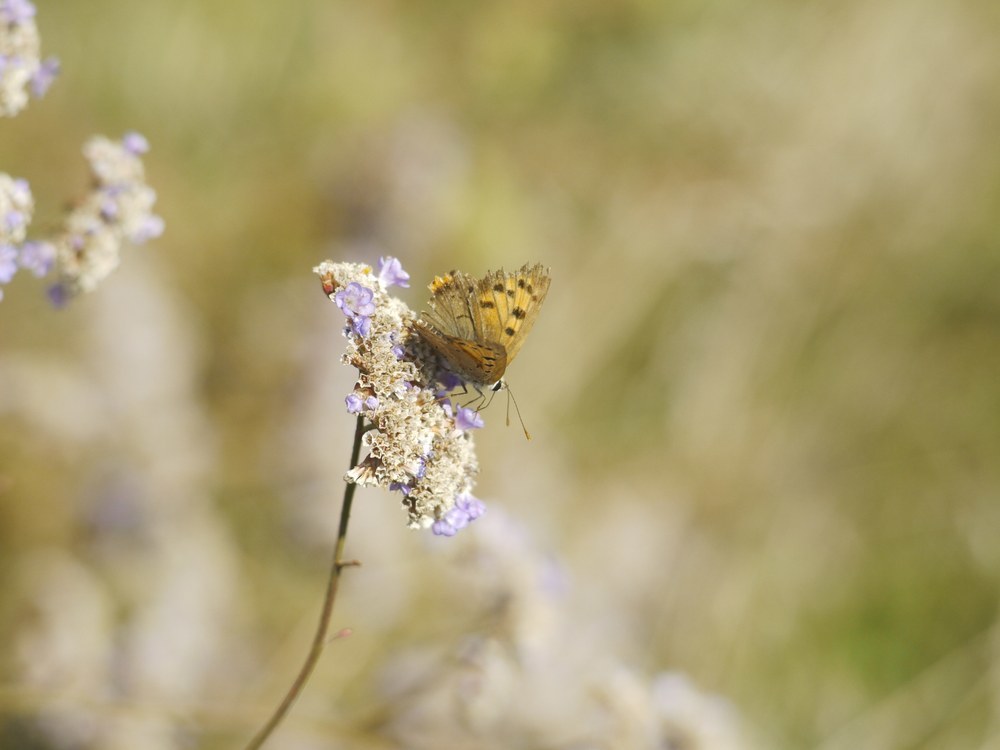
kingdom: Animalia
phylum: Arthropoda
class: Insecta
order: Lepidoptera
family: Lycaenidae
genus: Lycaena
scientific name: Lycaena phlaeas
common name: Small copper
